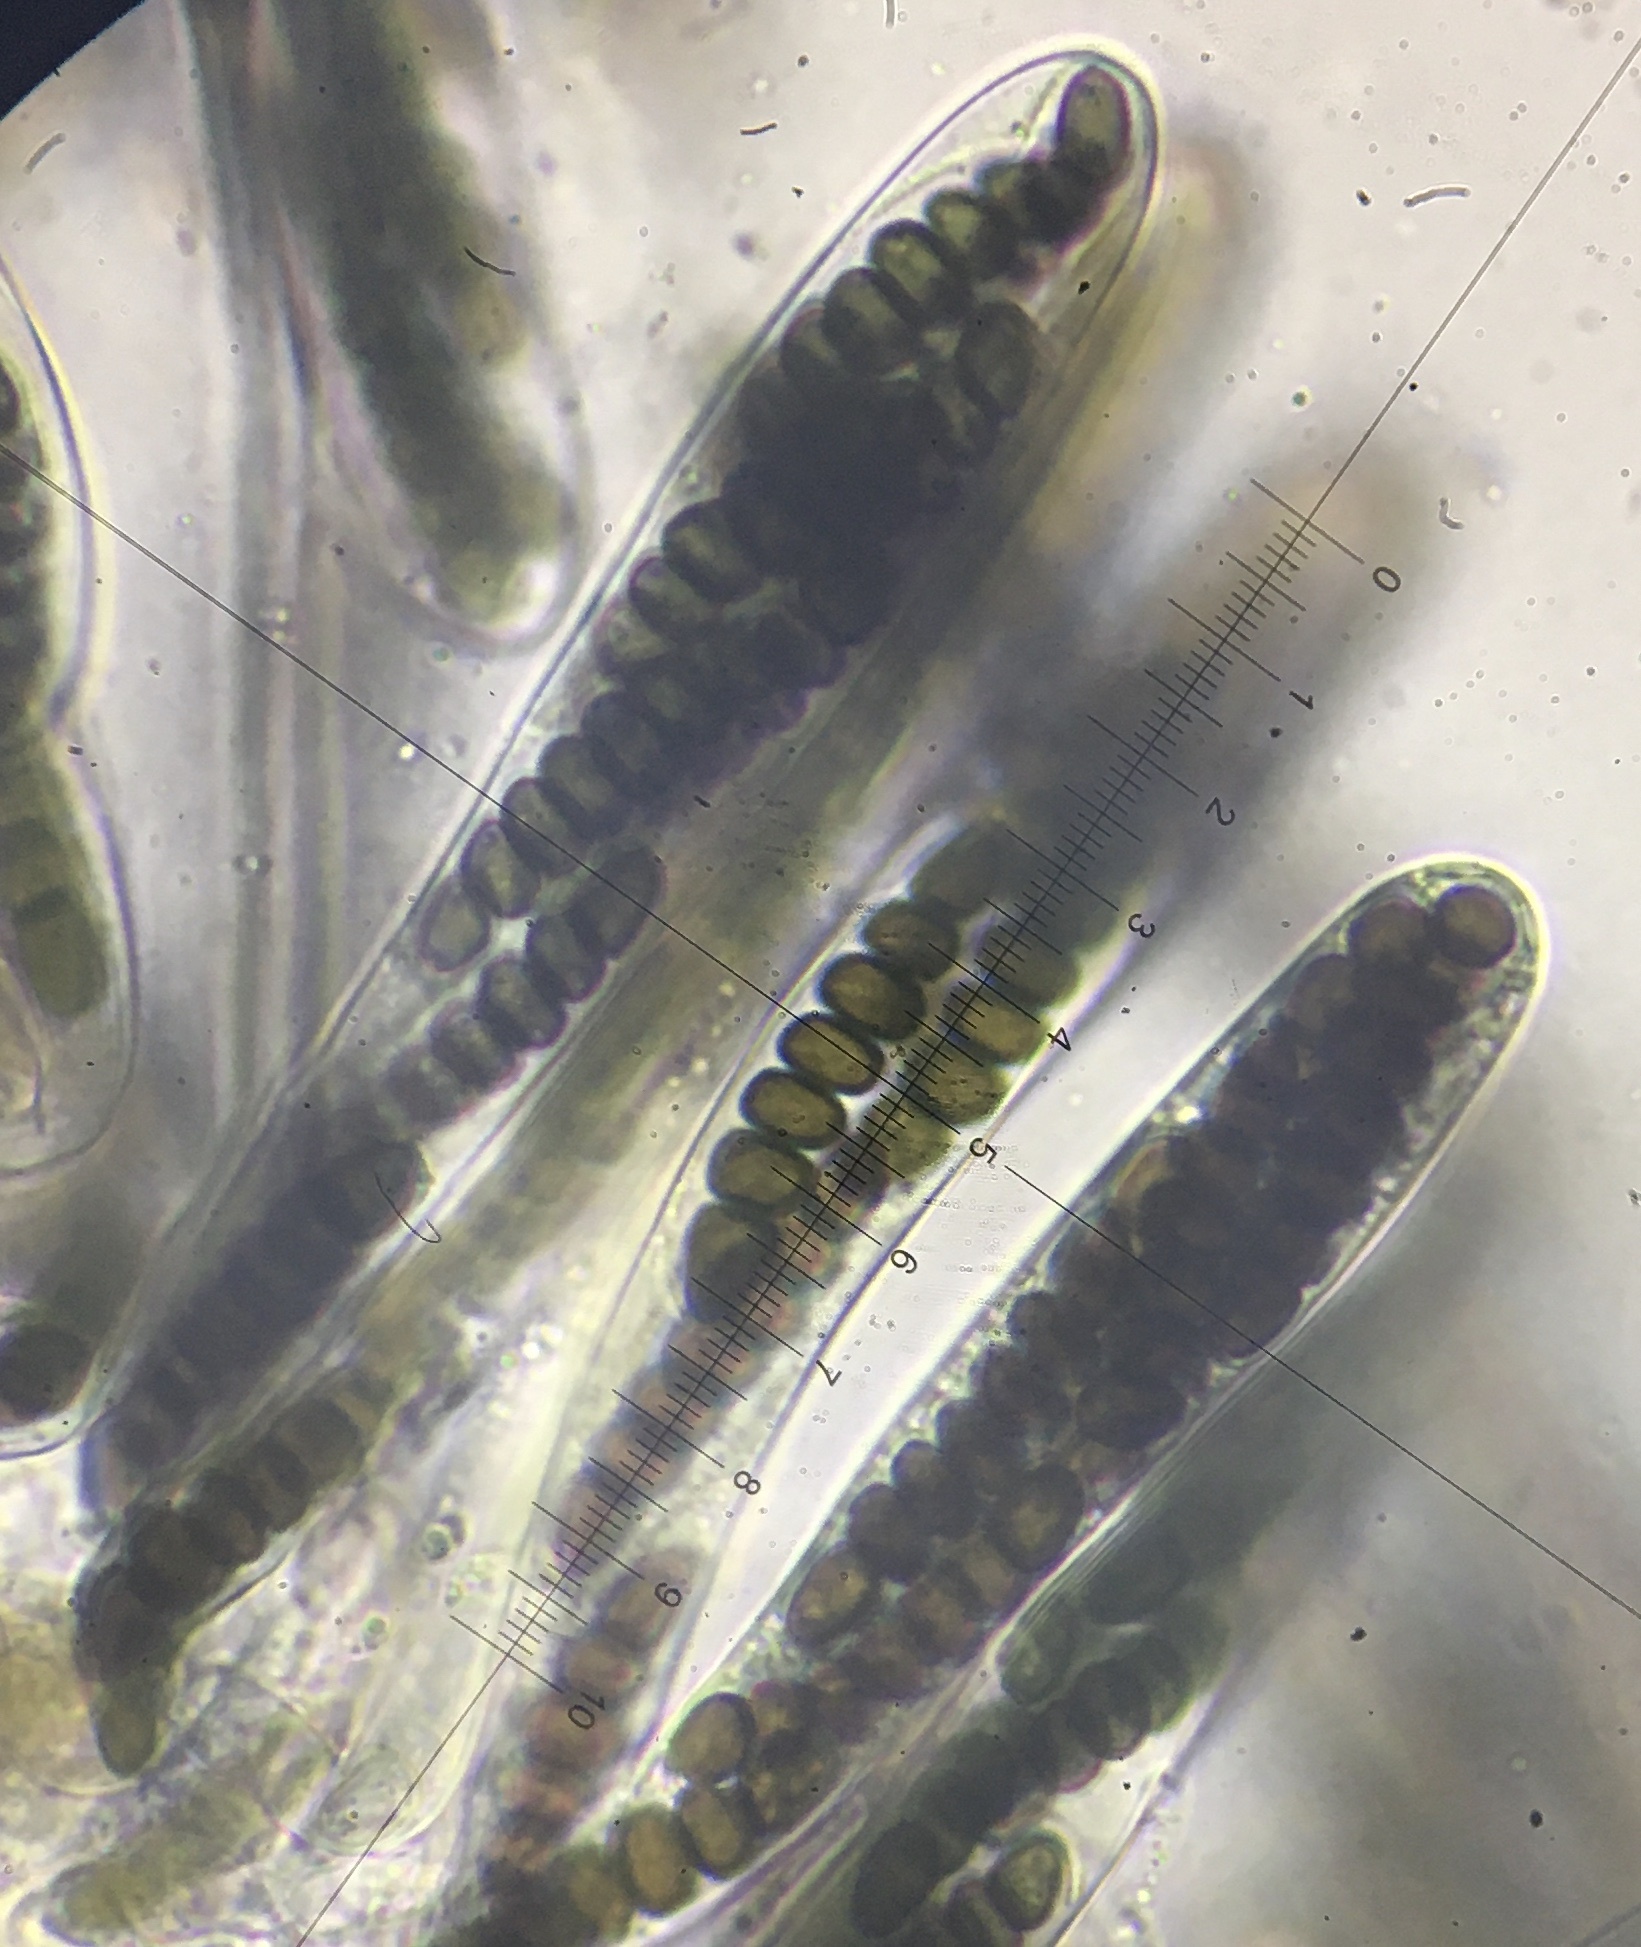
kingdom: Fungi
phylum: Ascomycota
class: Dothideomycetes
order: Pleosporales
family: Sporormiaceae
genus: Sporormiella
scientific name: Sporormiella vexans
